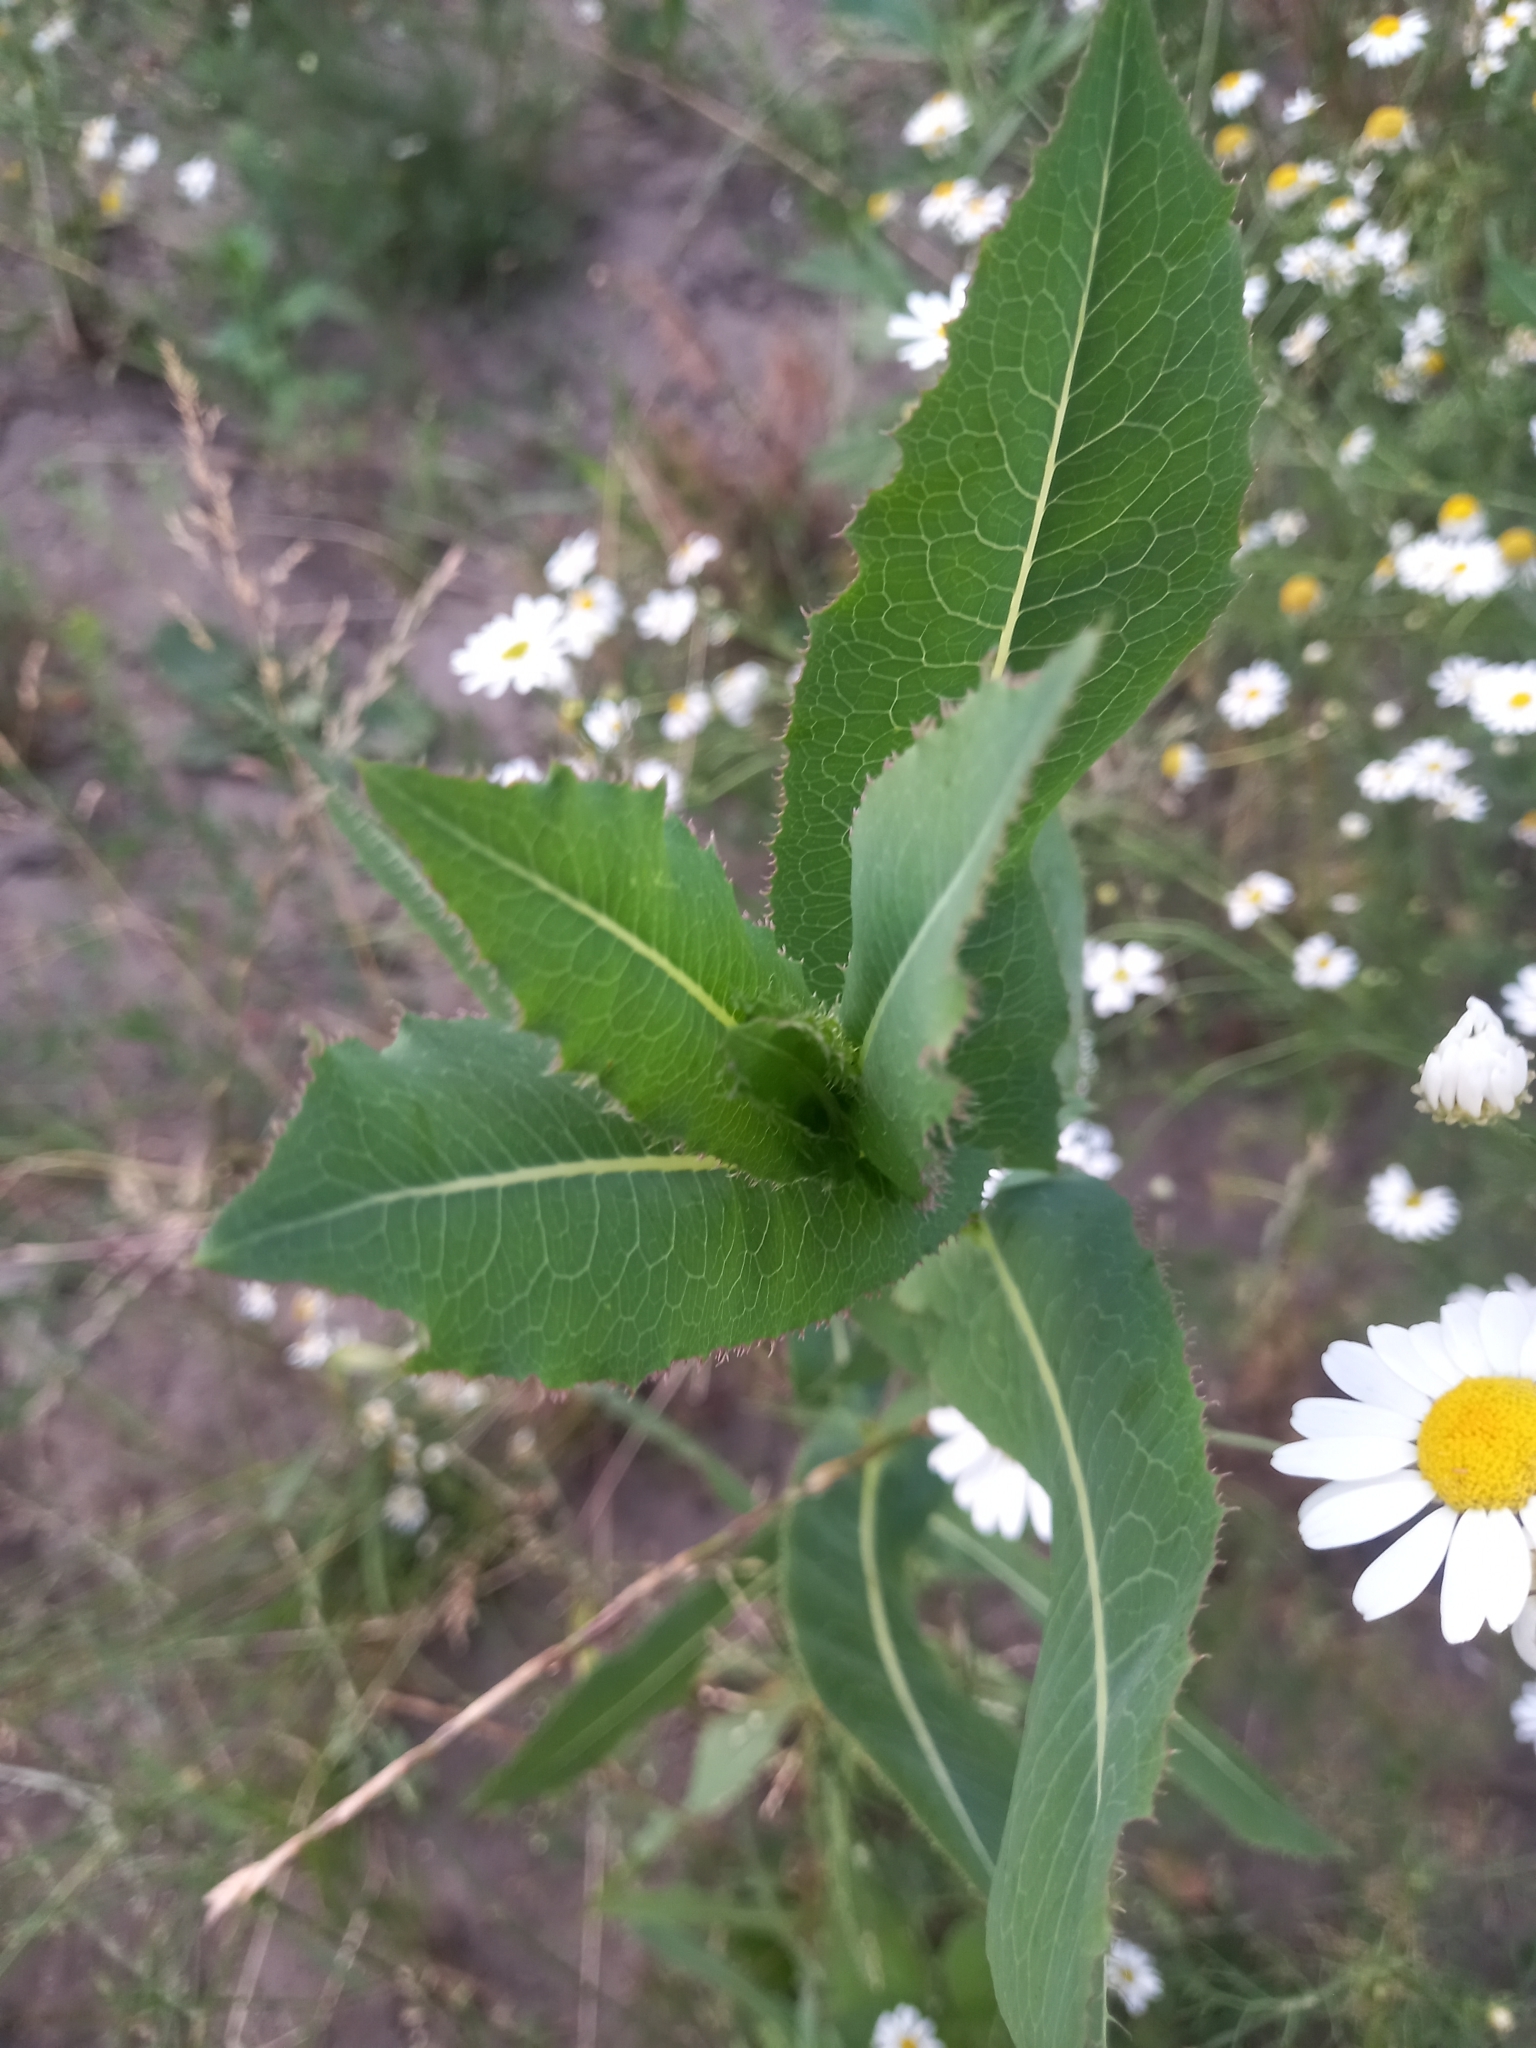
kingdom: Plantae
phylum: Tracheophyta
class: Magnoliopsida
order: Asterales
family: Asteraceae
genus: Lactuca
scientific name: Lactuca serriola
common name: Prickly lettuce
